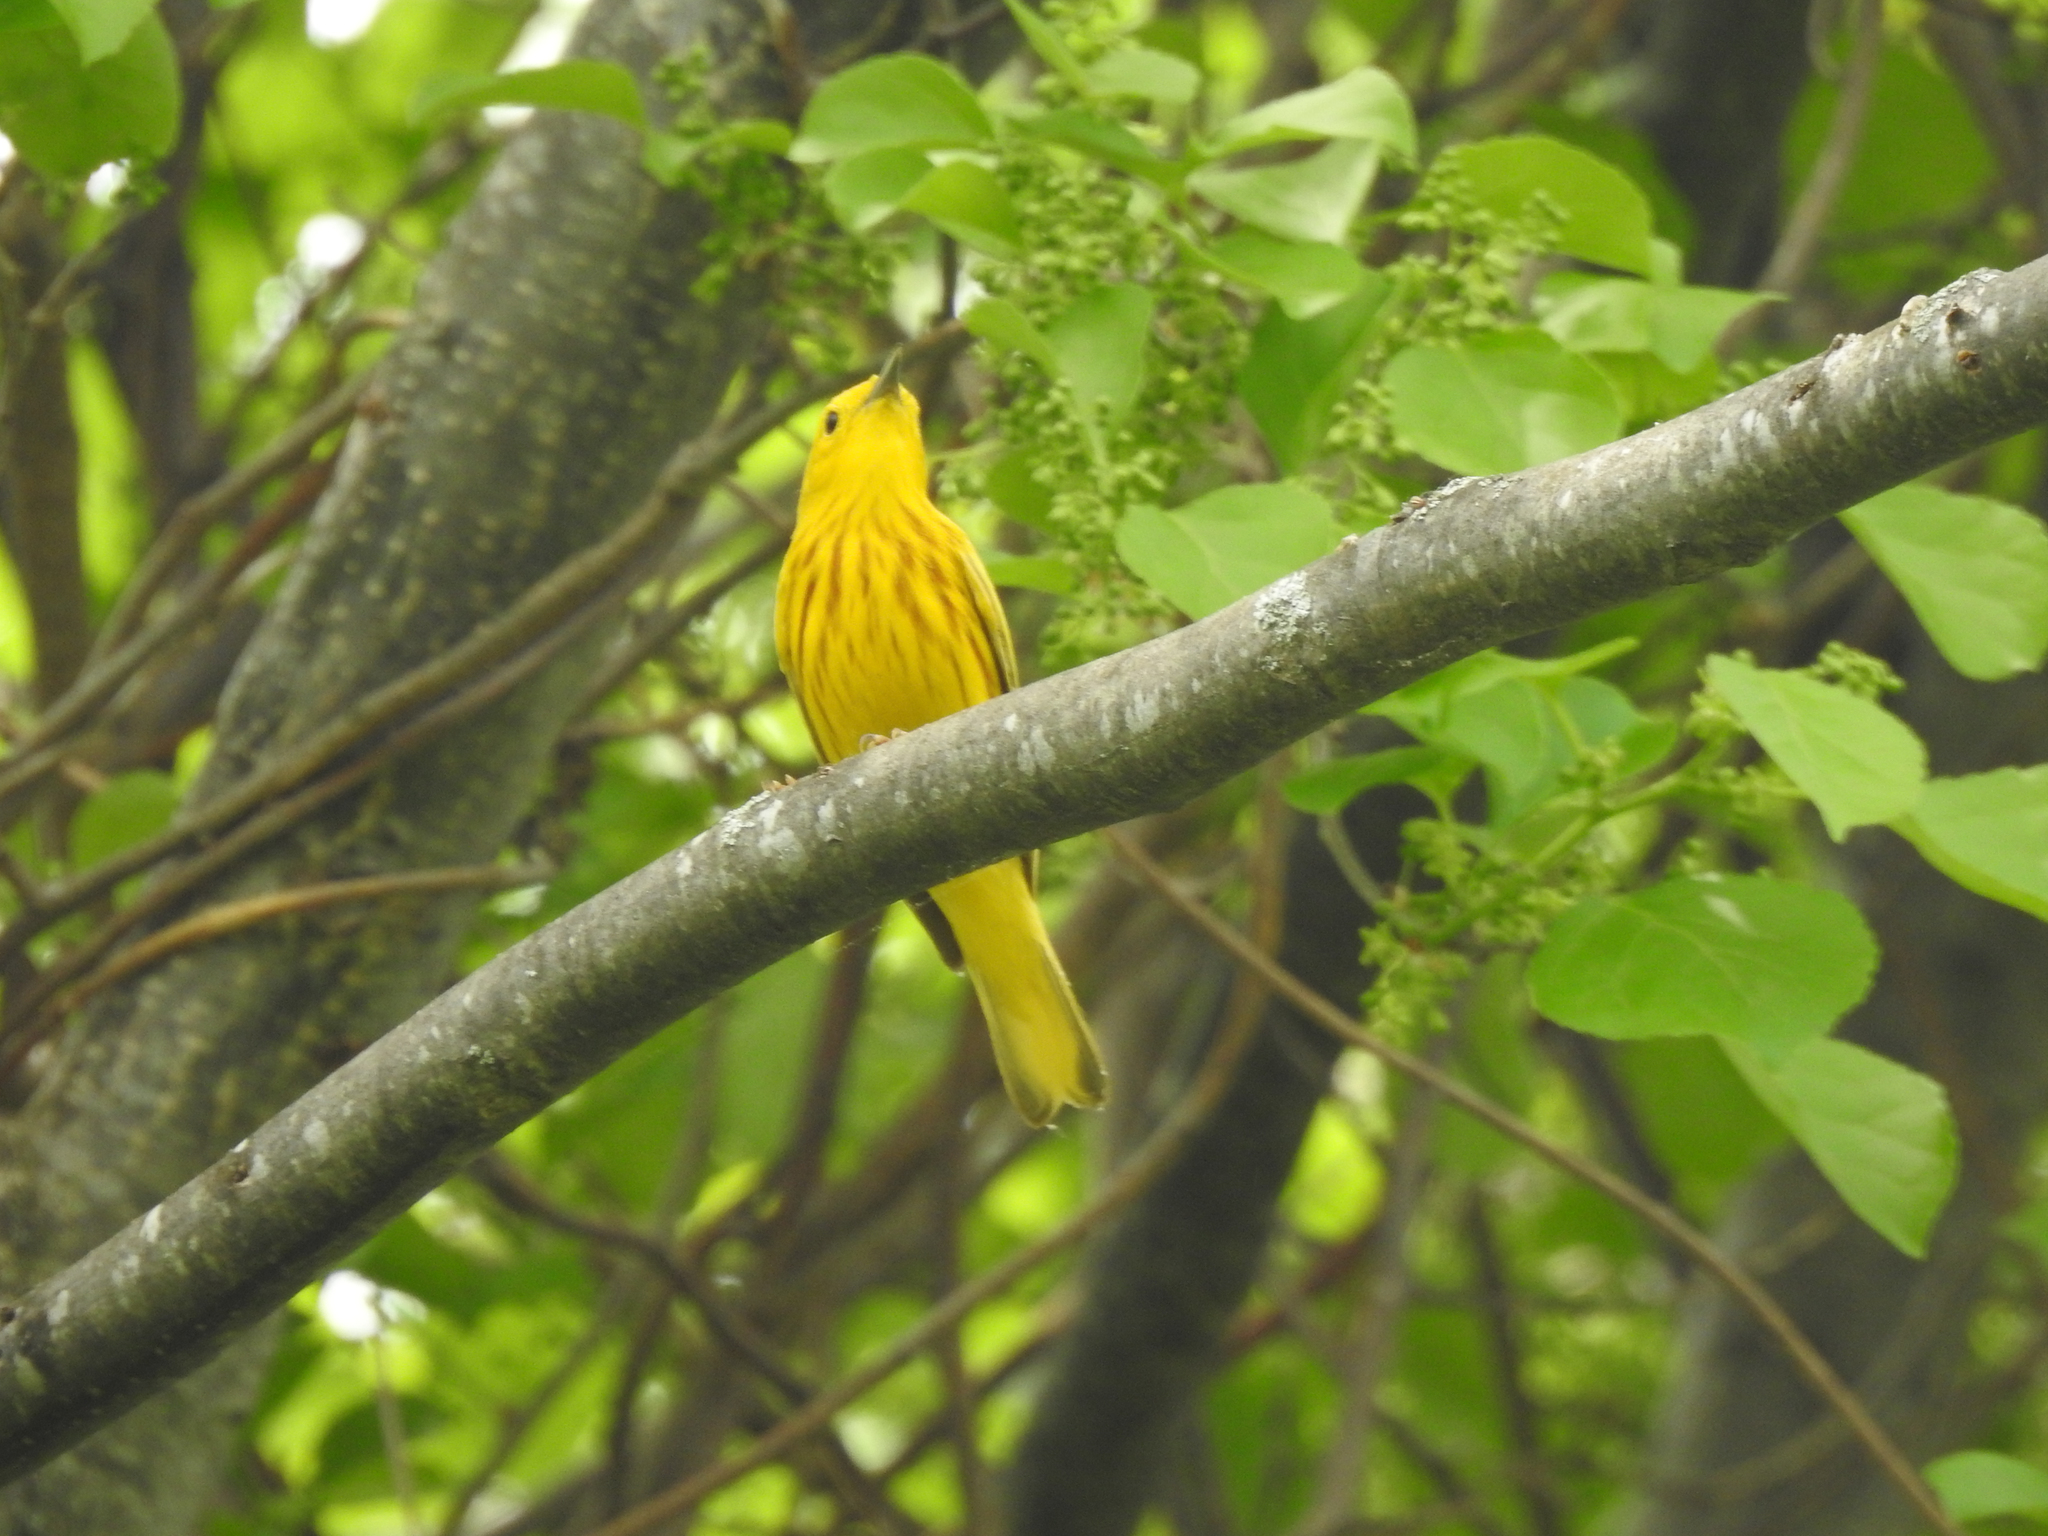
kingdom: Animalia
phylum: Chordata
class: Aves
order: Passeriformes
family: Parulidae
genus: Setophaga
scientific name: Setophaga petechia
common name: Yellow warbler
